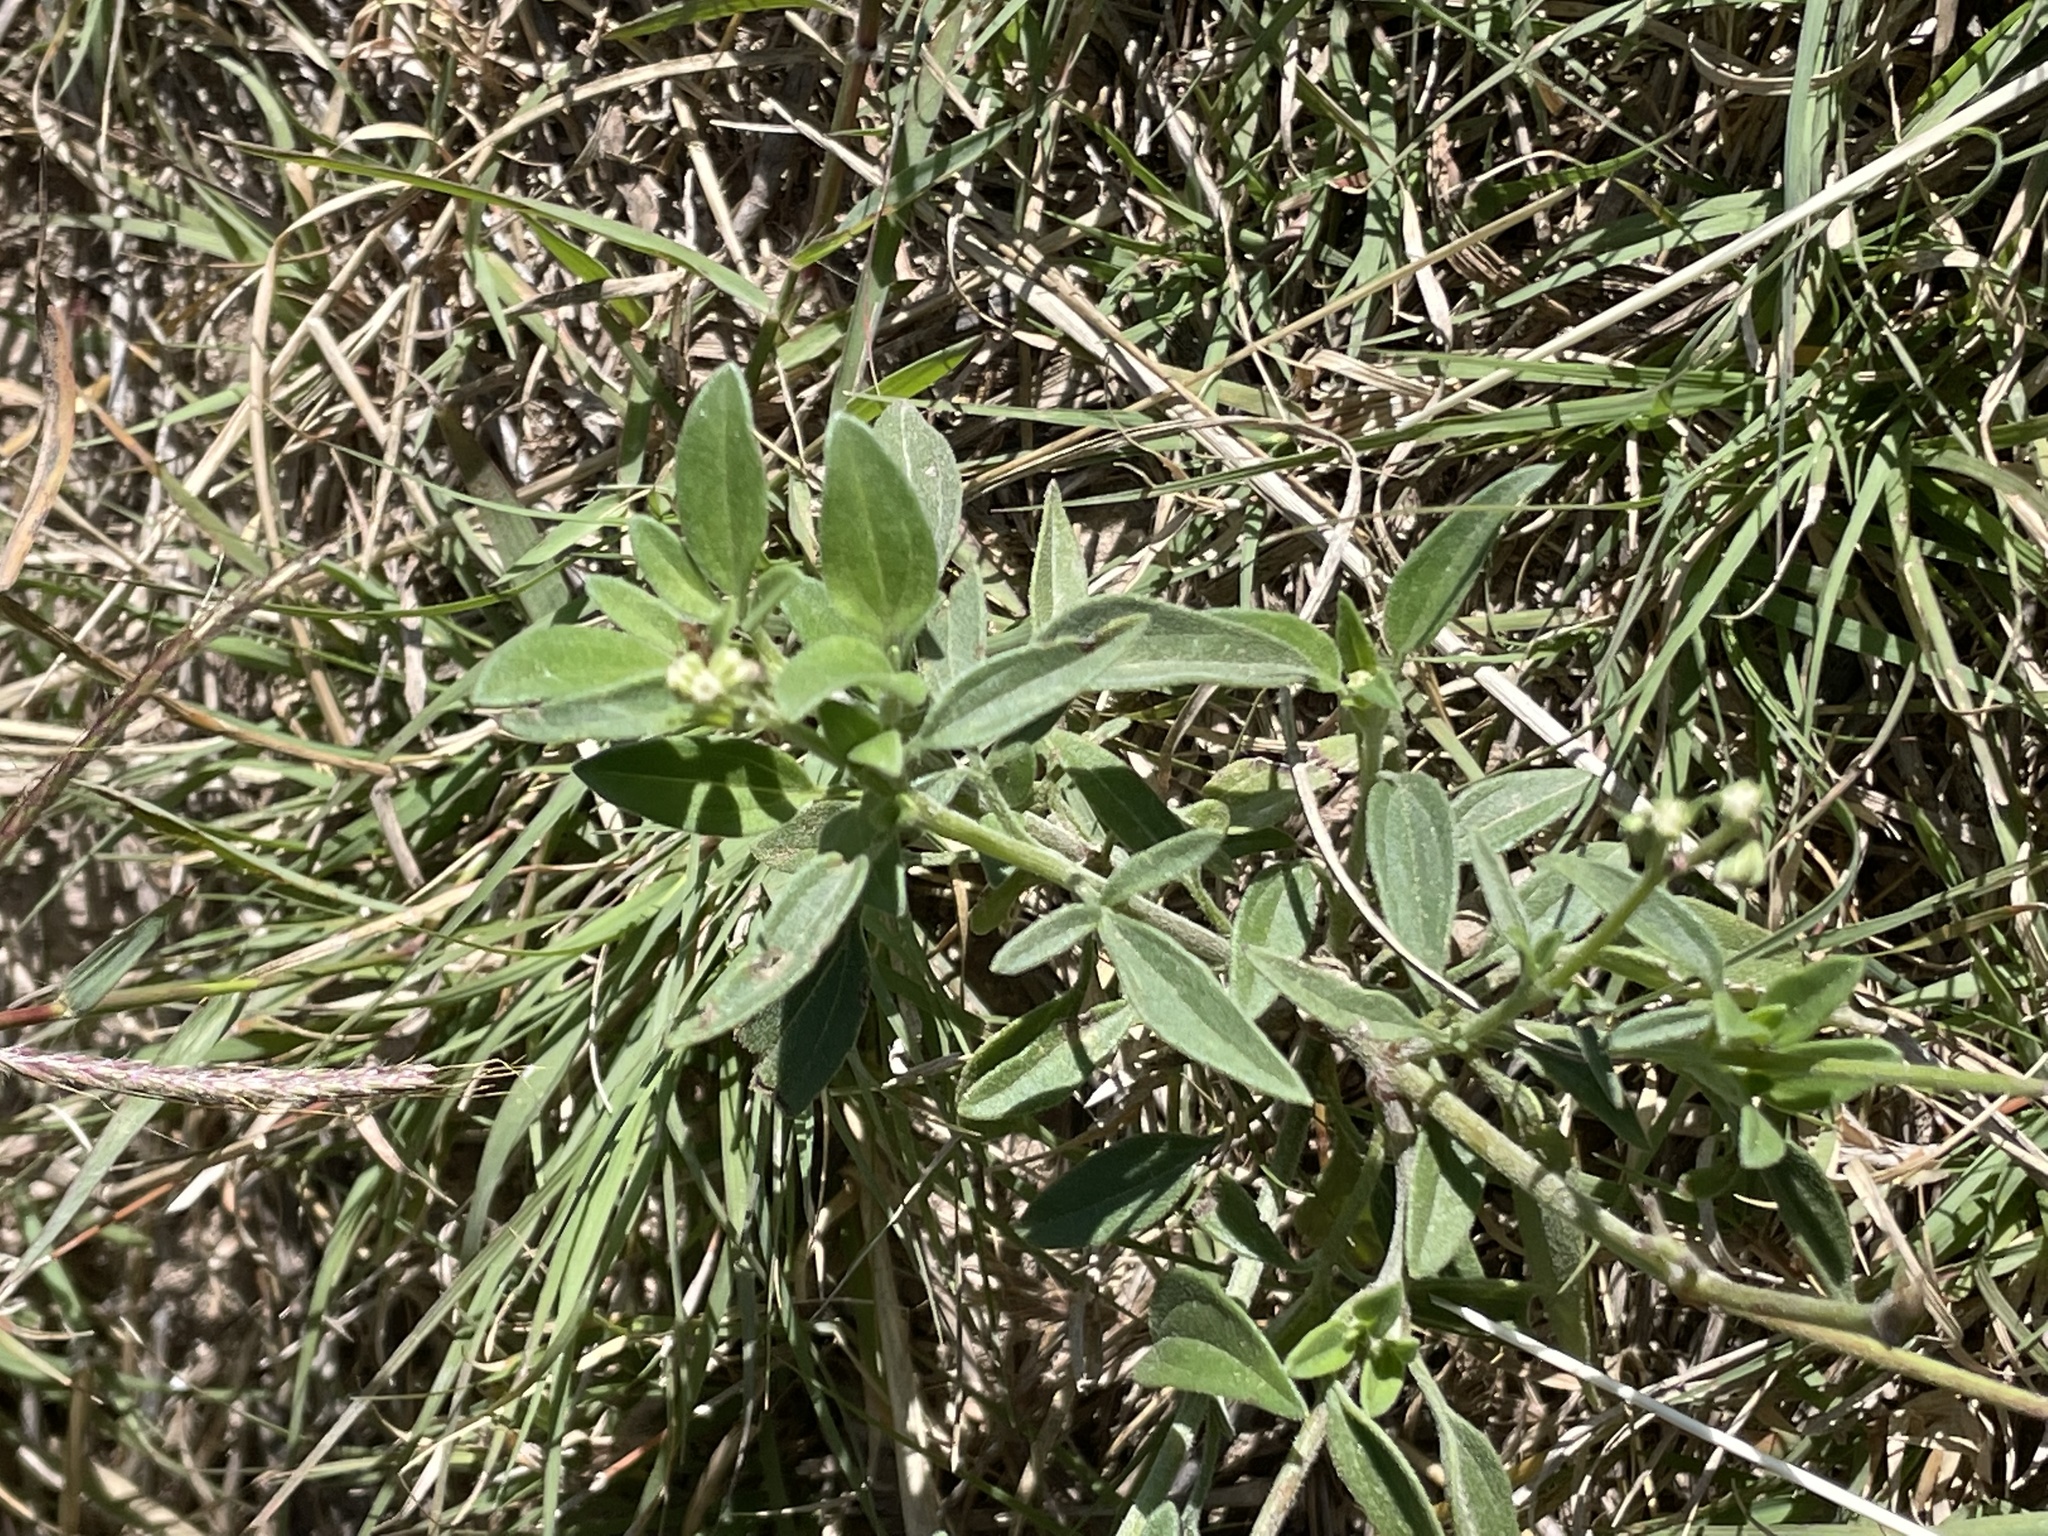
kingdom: Plantae
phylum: Tracheophyta
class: Magnoliopsida
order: Asterales
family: Asteraceae
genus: Florestina
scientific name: Florestina tripteris
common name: Sticky florestina
